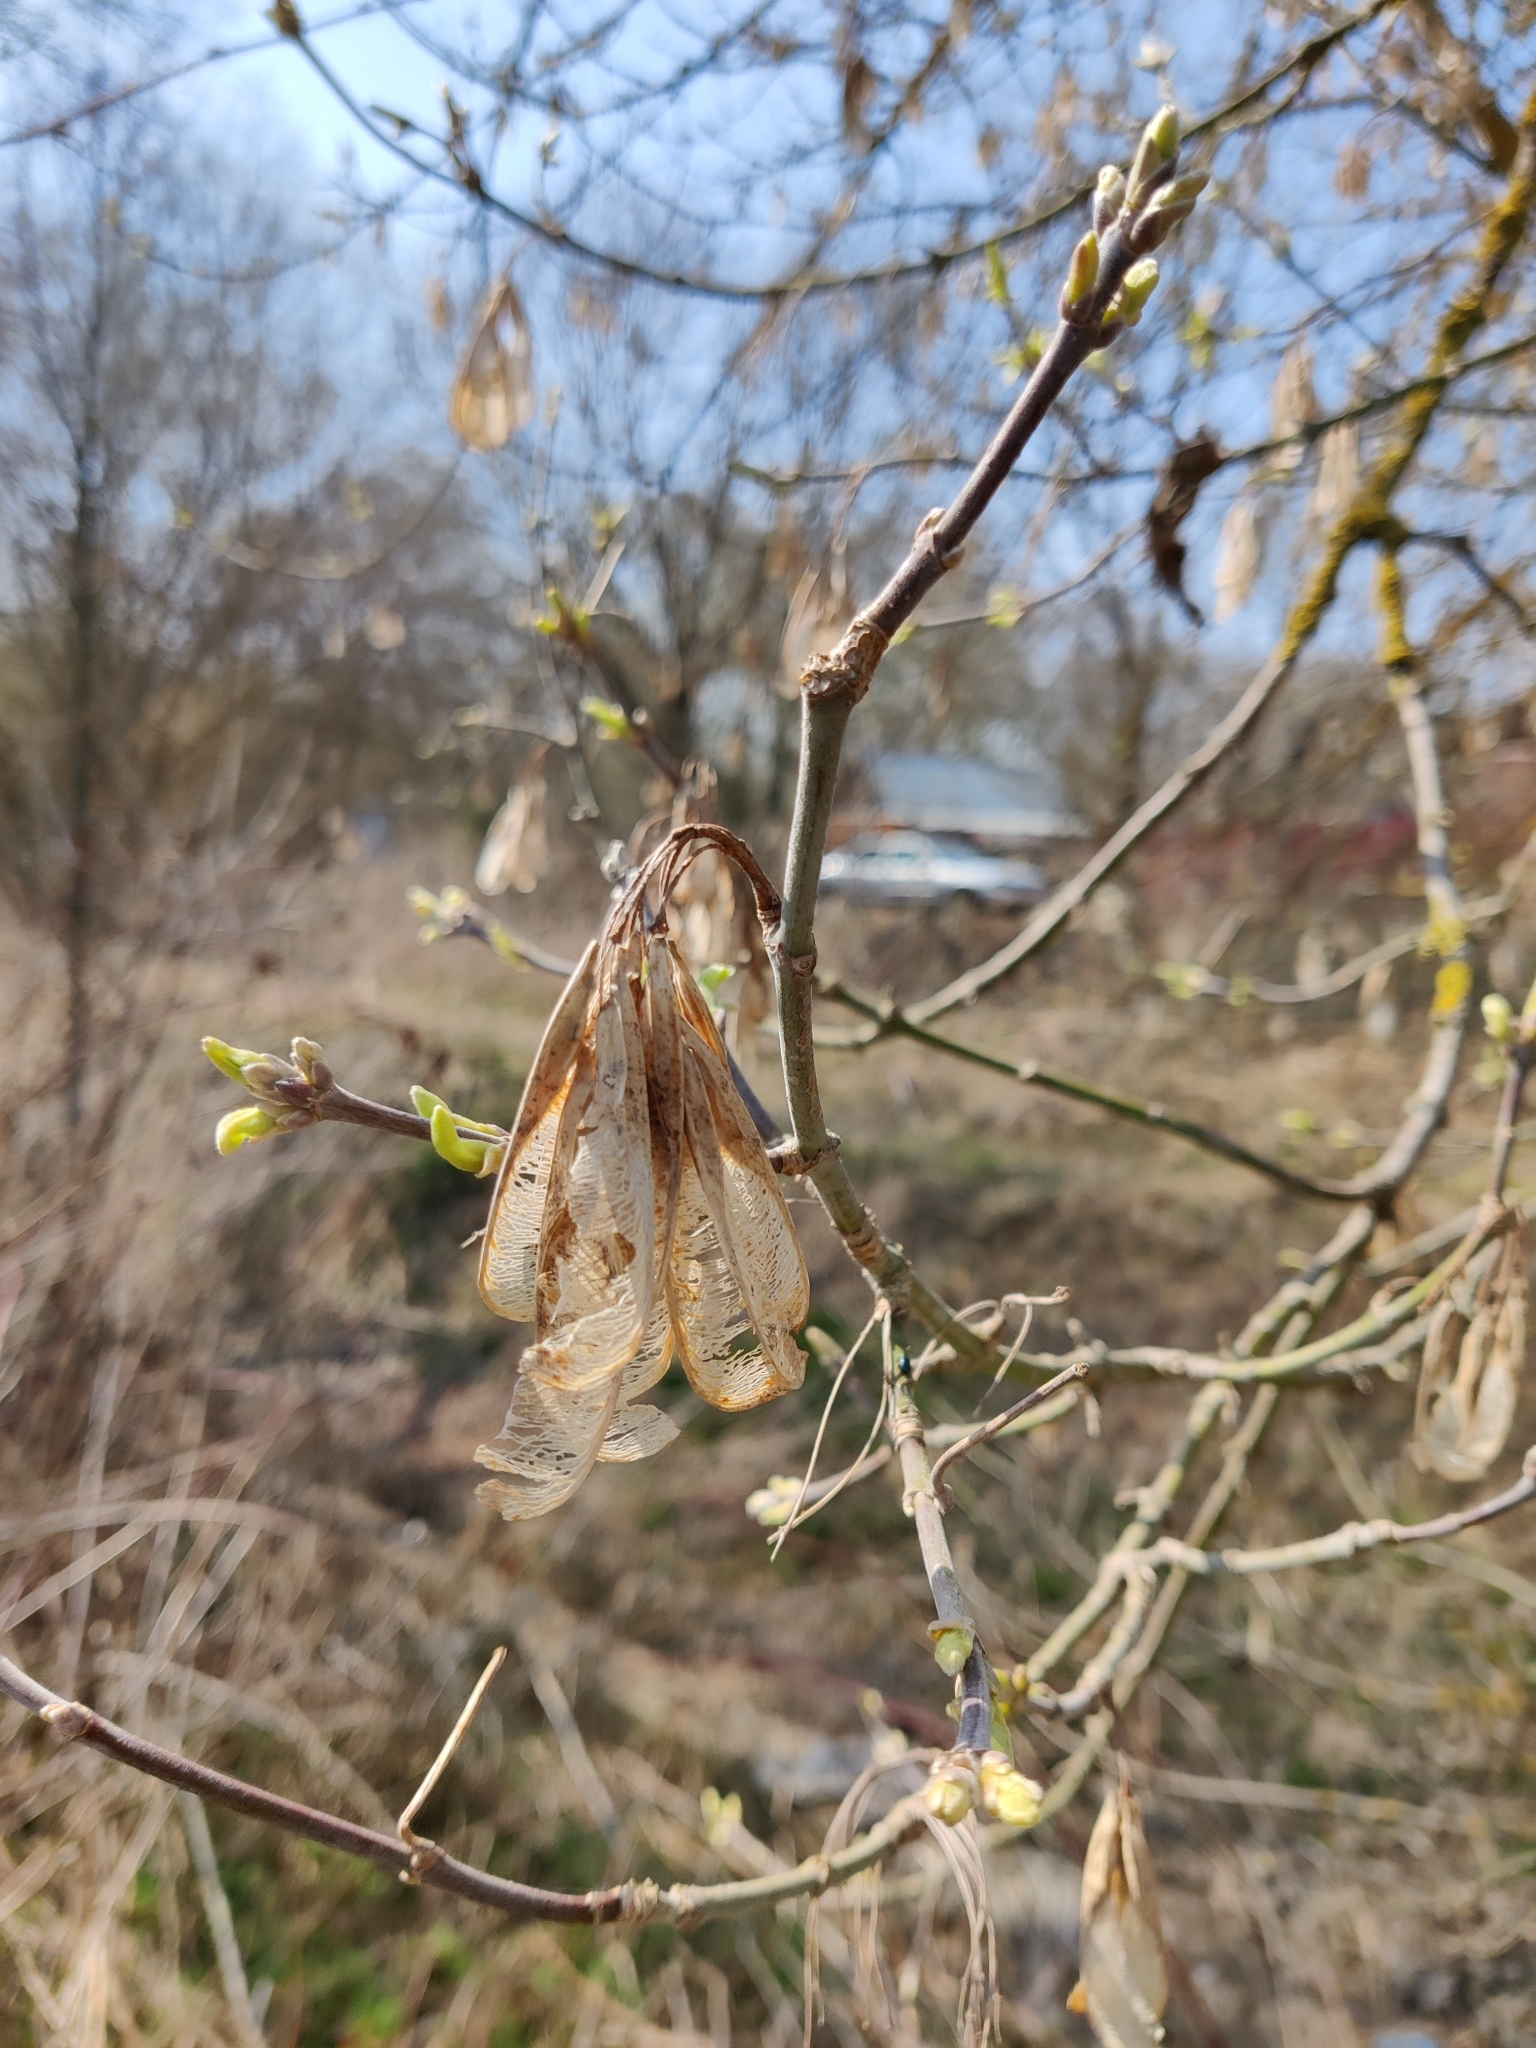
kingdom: Plantae
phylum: Tracheophyta
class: Magnoliopsida
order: Sapindales
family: Sapindaceae
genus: Acer
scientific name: Acer negundo
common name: Ashleaf maple
